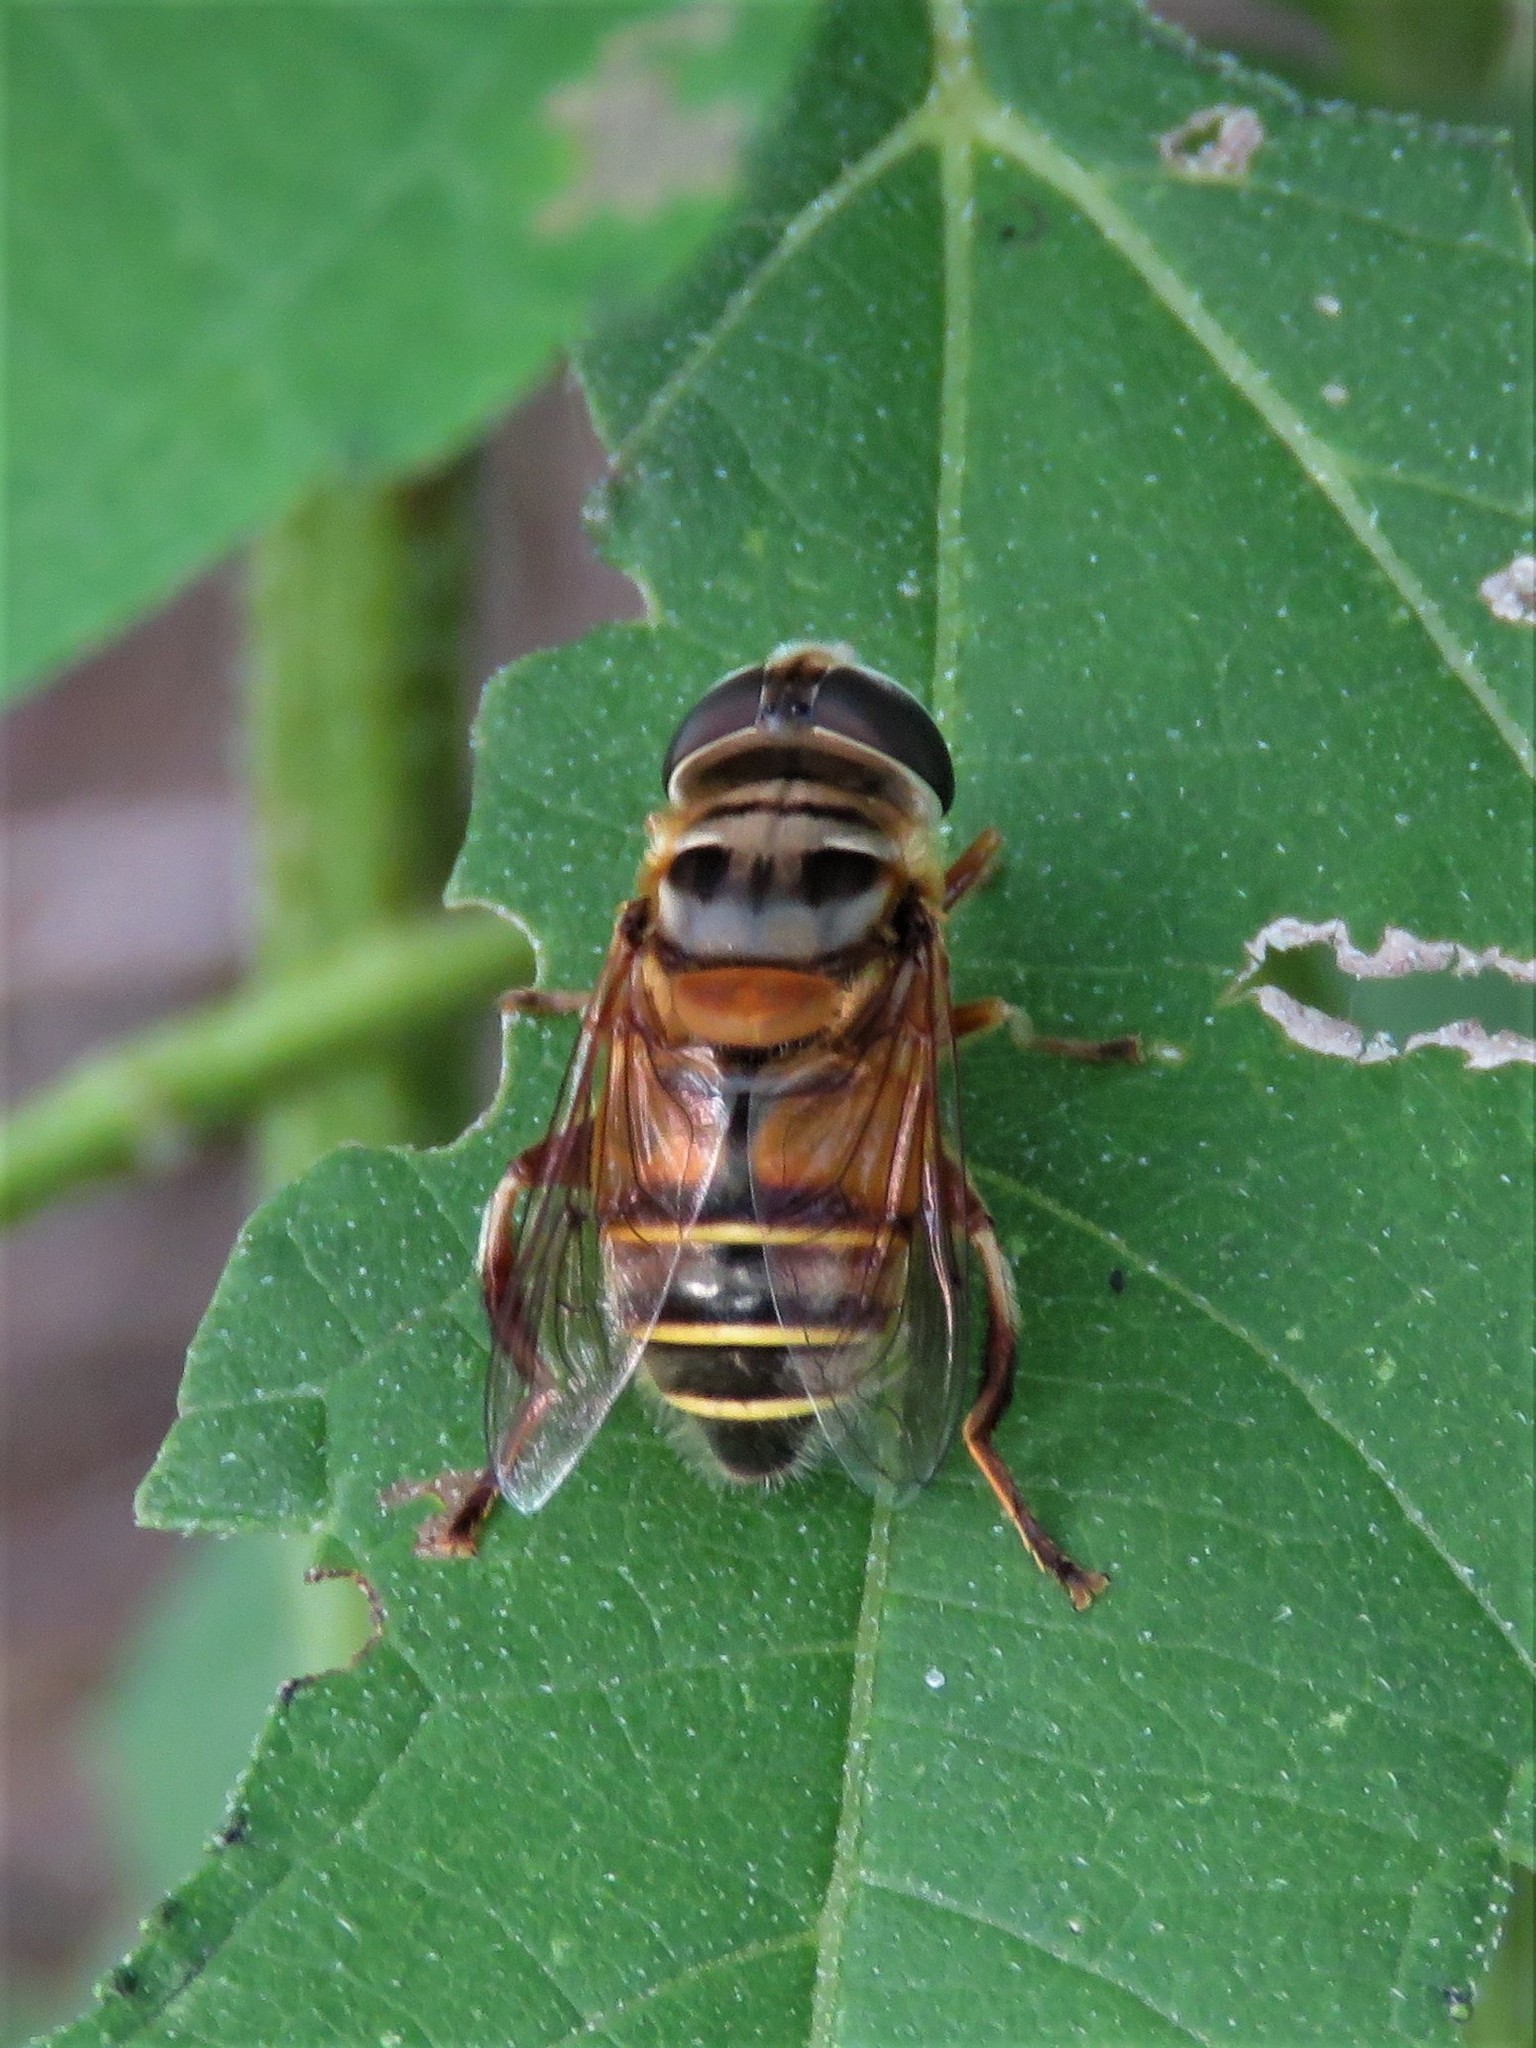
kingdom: Animalia
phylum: Arthropoda
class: Insecta
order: Diptera
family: Syrphidae
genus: Palpada
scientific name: Palpada vinetorum
